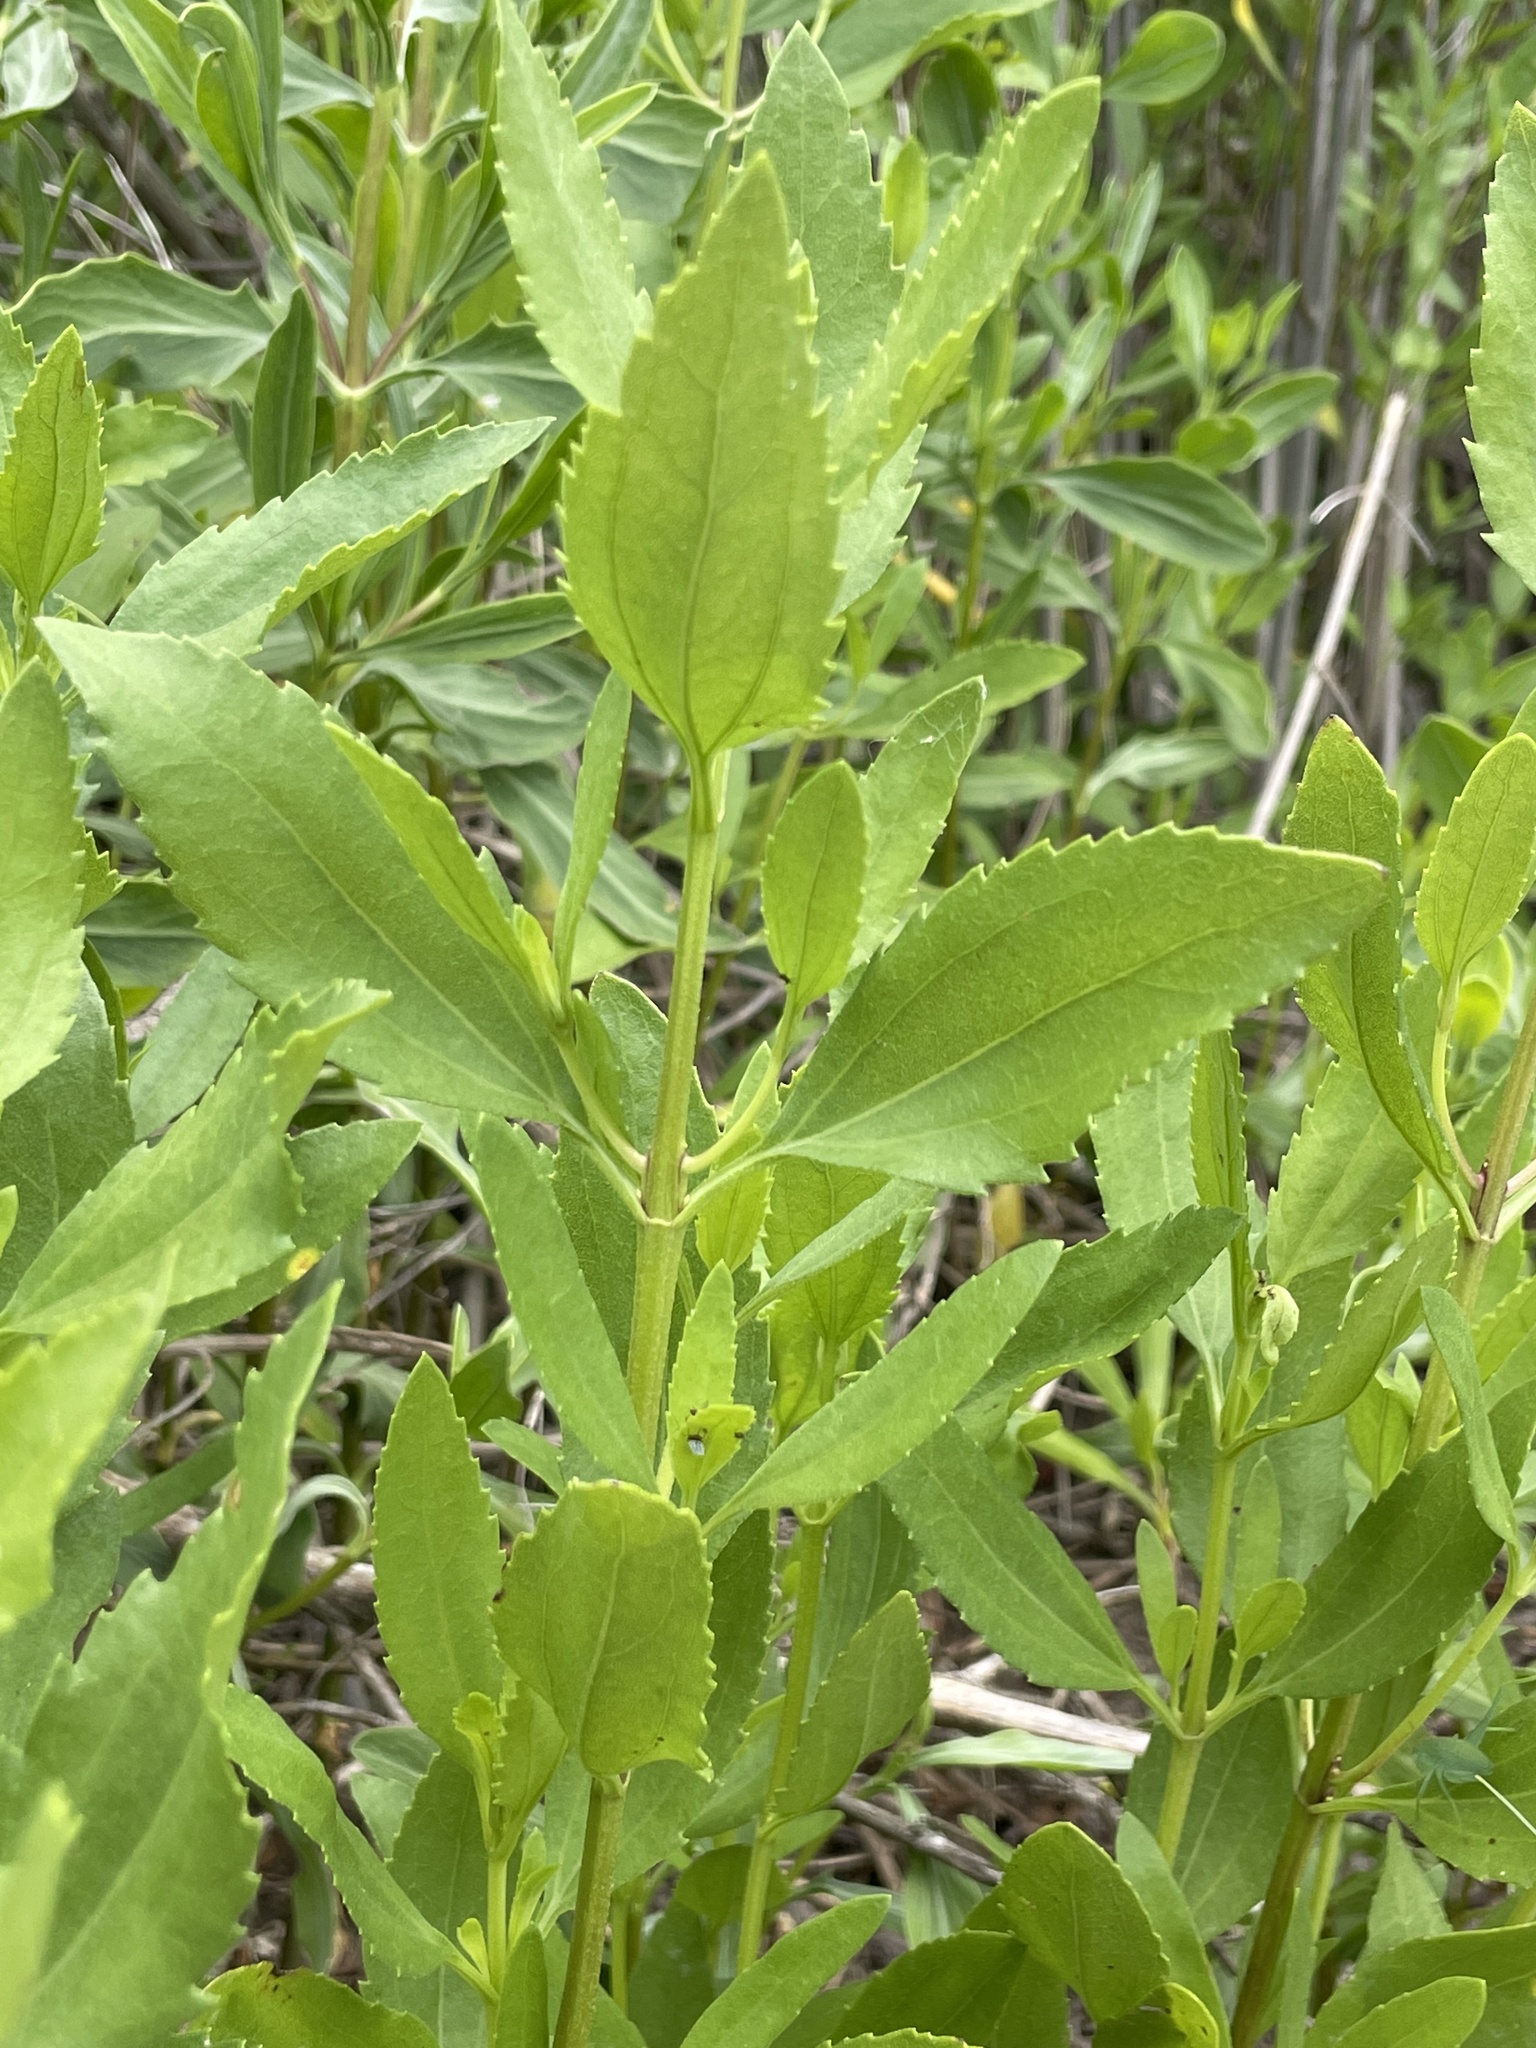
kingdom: Plantae
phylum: Tracheophyta
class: Magnoliopsida
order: Asterales
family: Asteraceae
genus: Iva
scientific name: Iva frutescens
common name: Big-leaved marsh-elder
